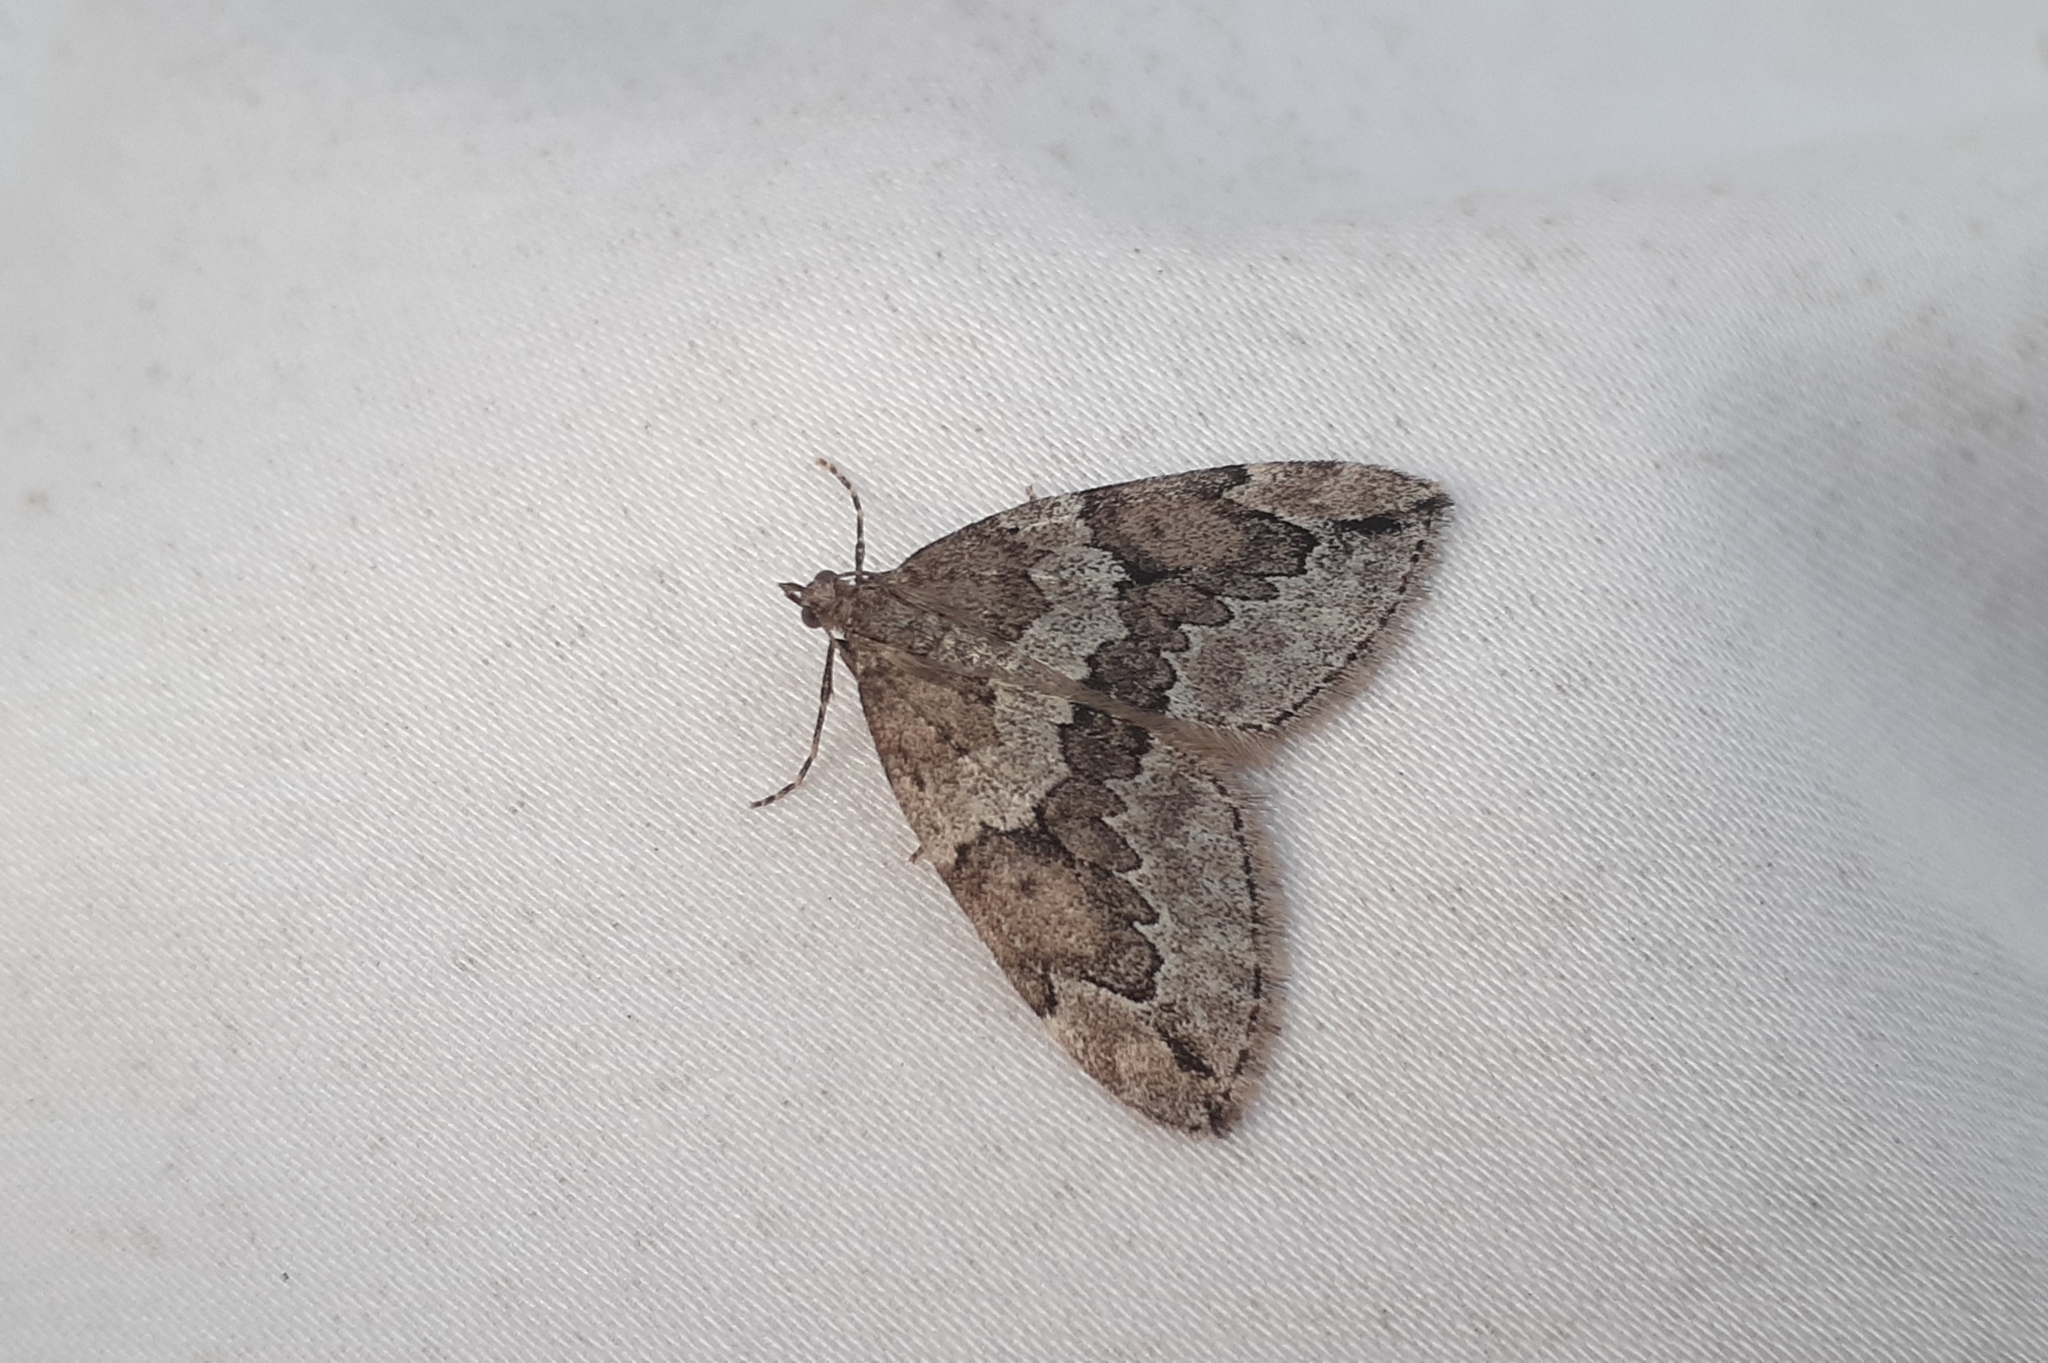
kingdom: Animalia
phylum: Arthropoda
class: Insecta
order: Lepidoptera
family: Geometridae
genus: Thera
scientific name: Thera juniperata
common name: Juniper carpet
